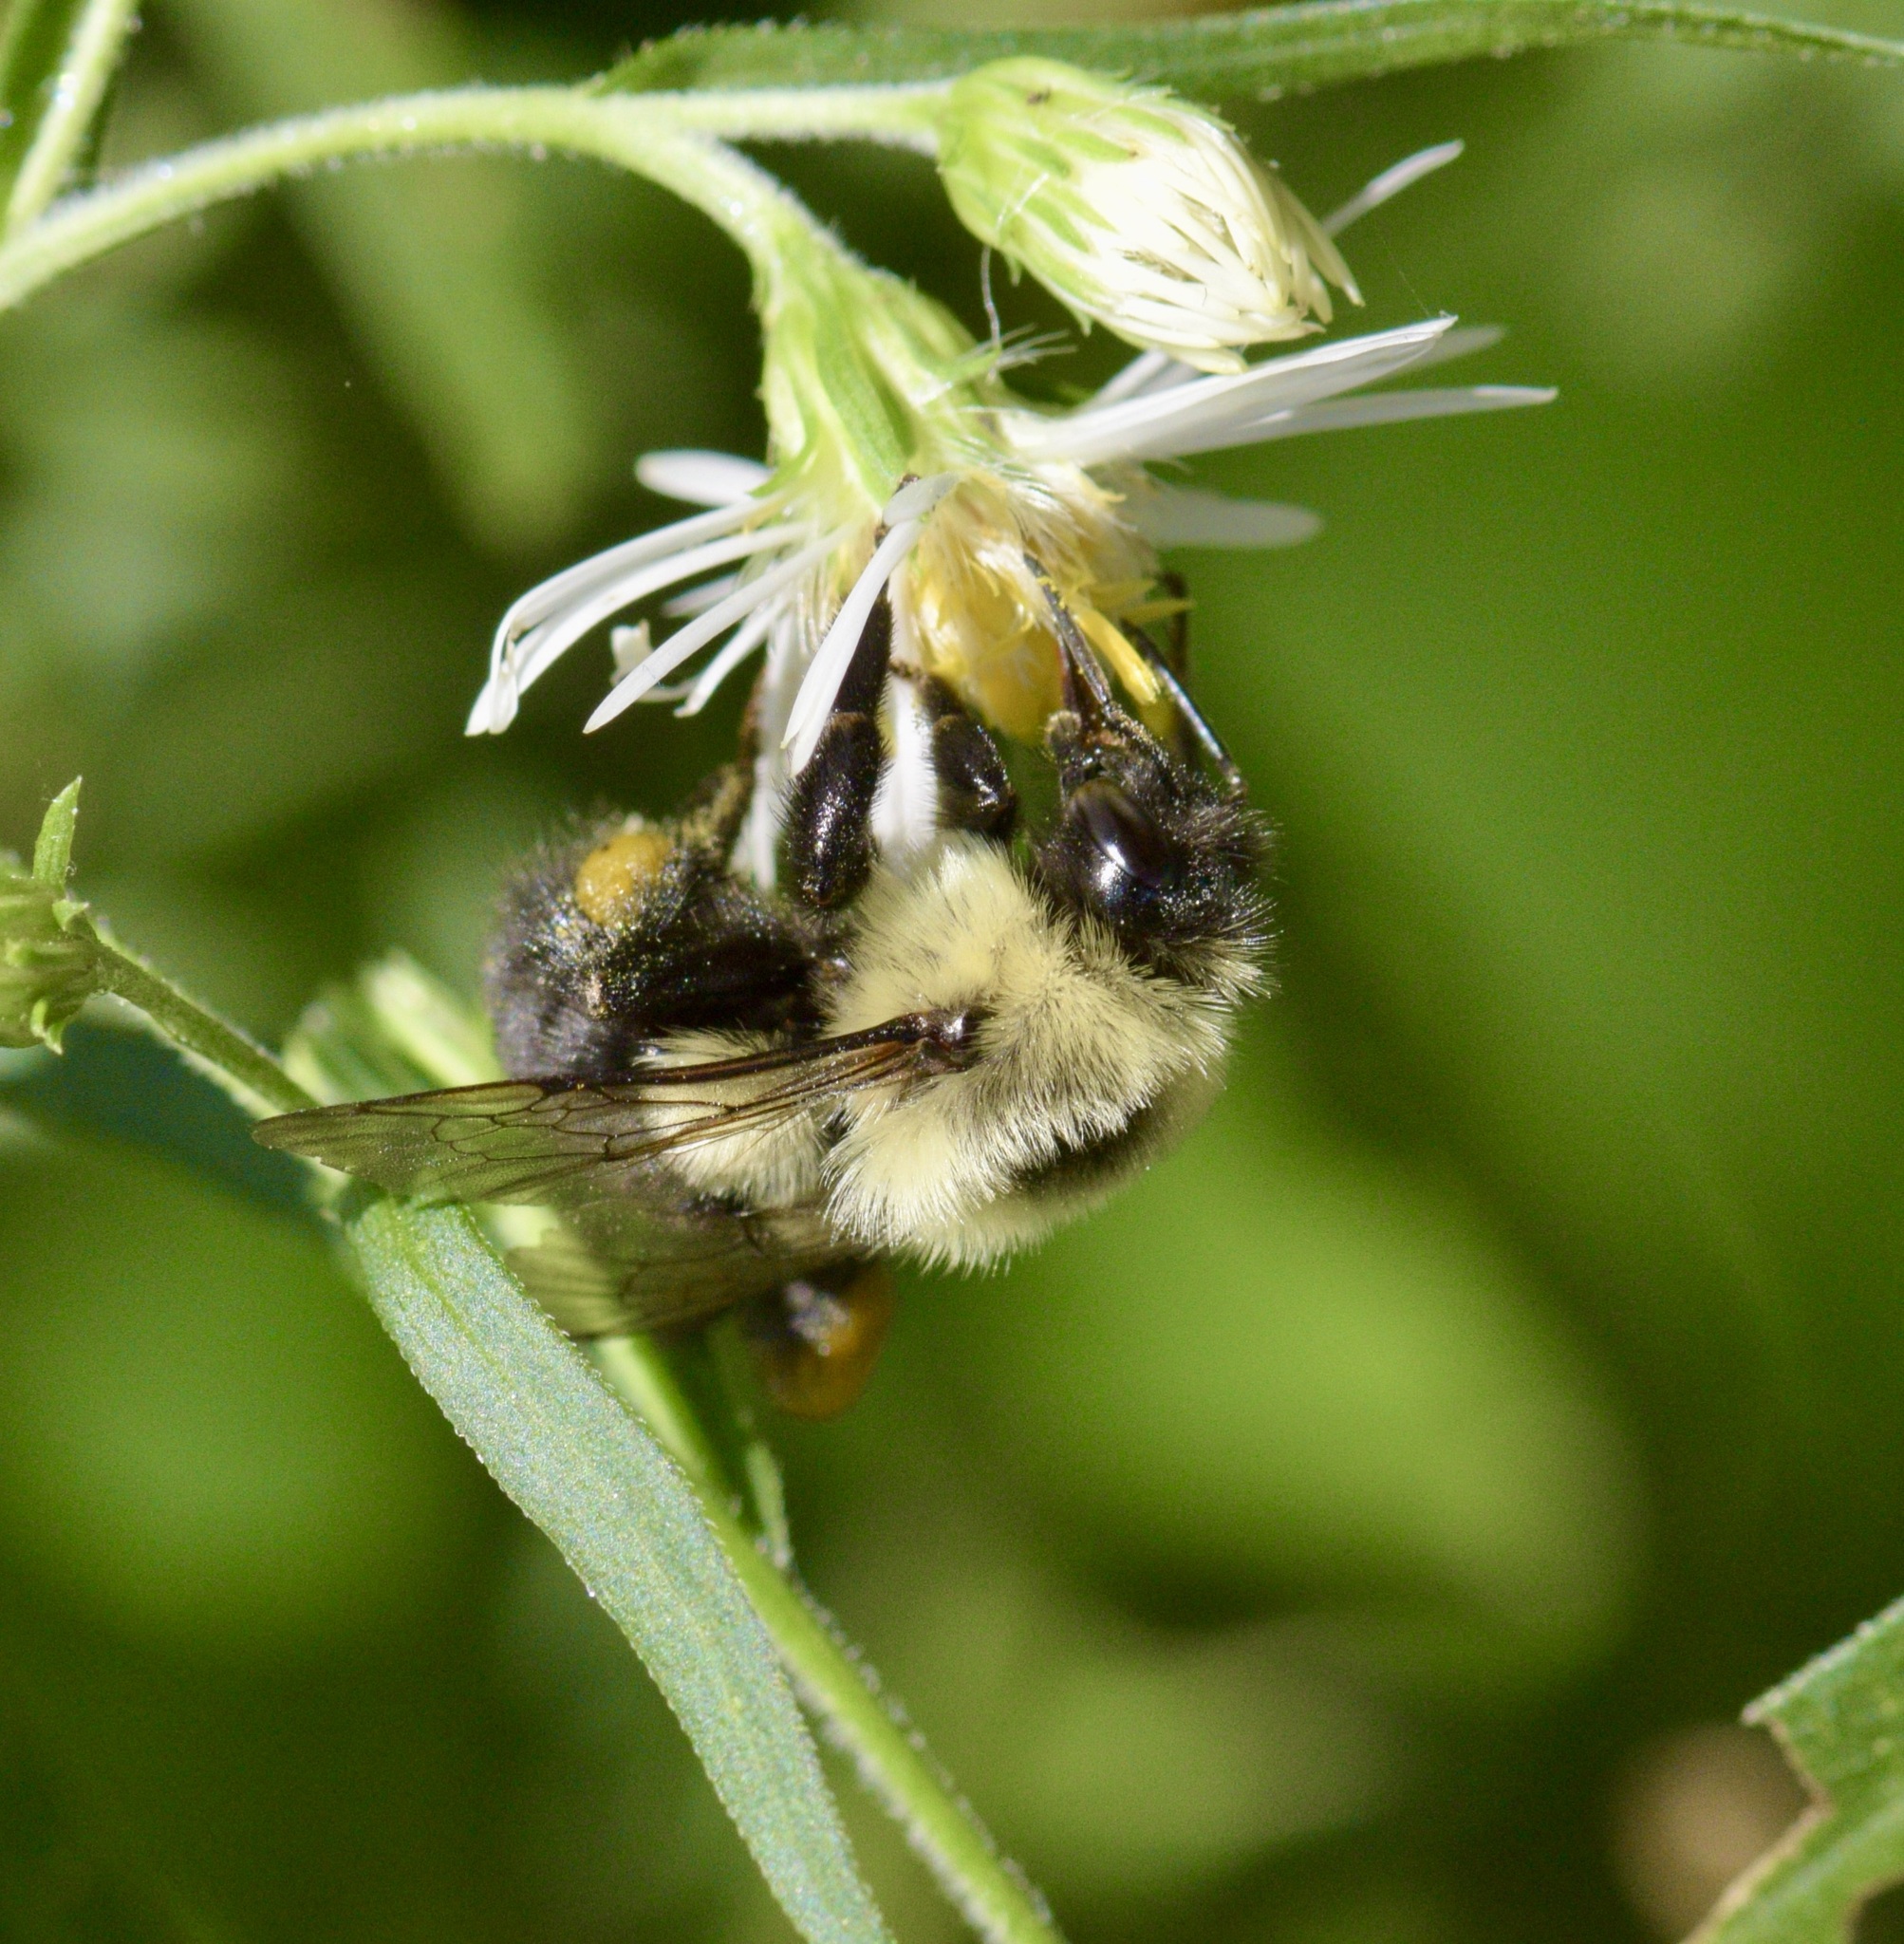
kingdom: Animalia
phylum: Arthropoda
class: Insecta
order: Hymenoptera
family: Apidae
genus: Bombus
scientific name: Bombus impatiens
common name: Common eastern bumble bee
